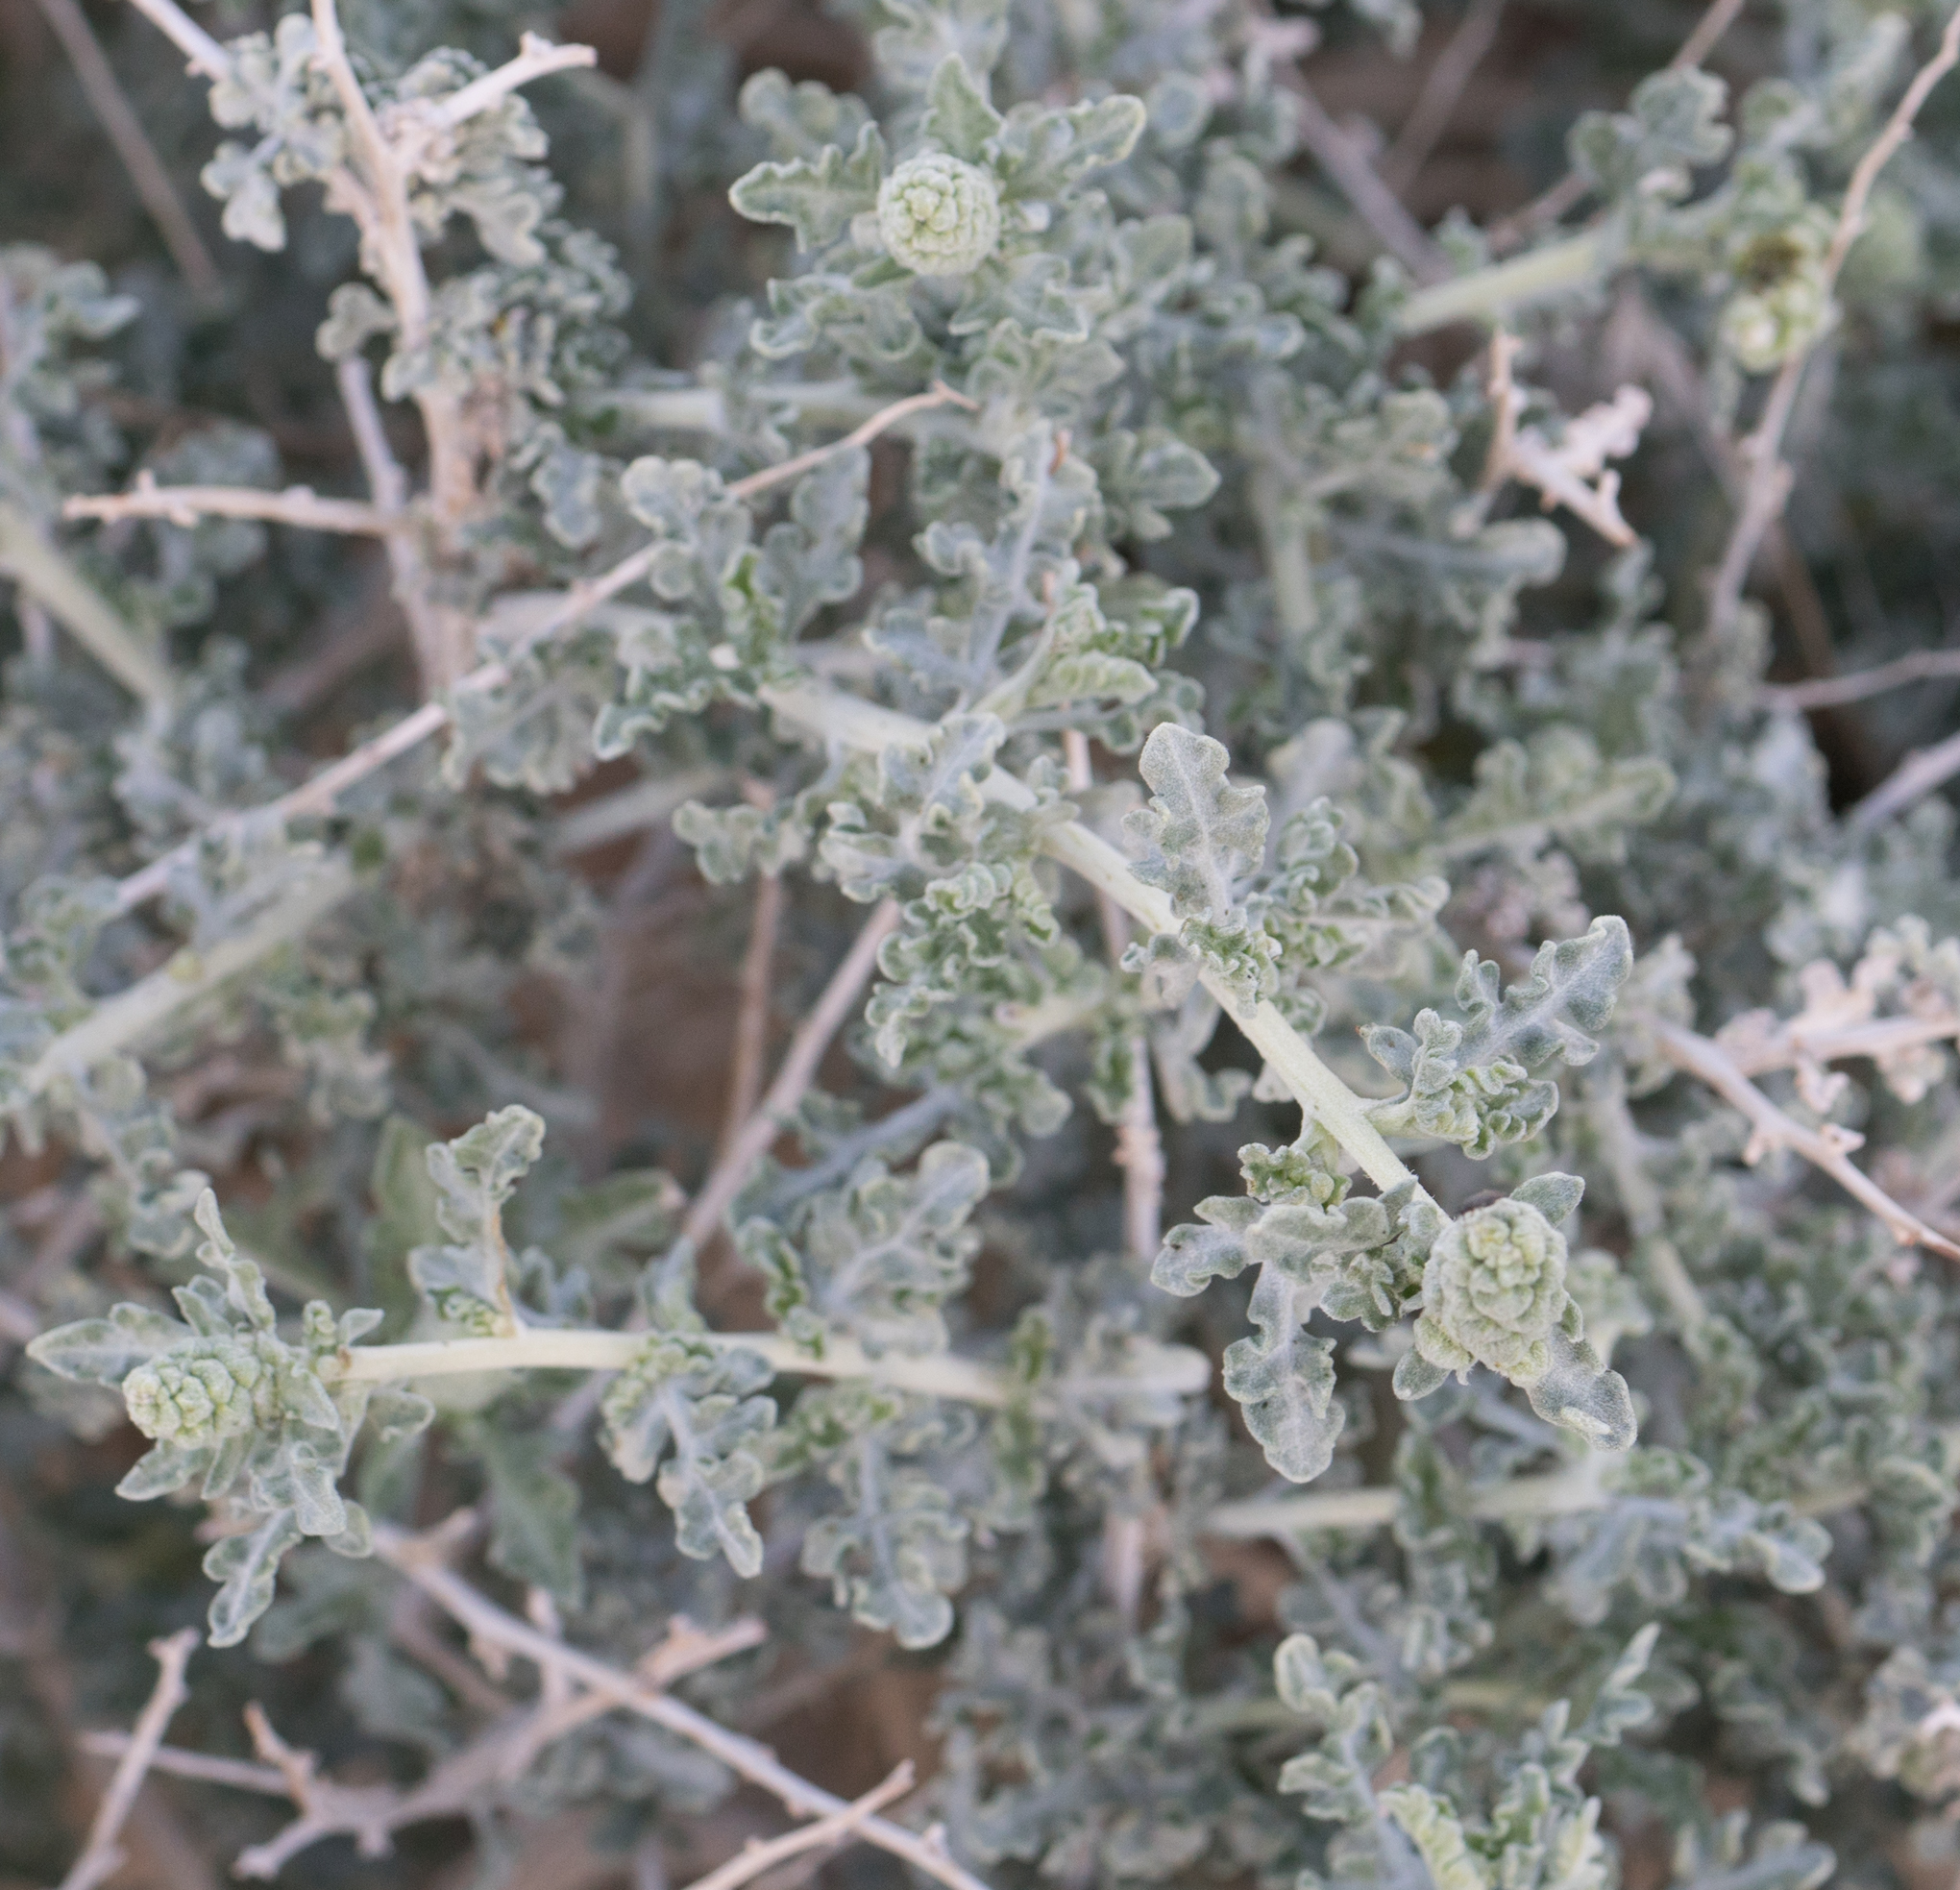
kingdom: Plantae
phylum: Tracheophyta
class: Magnoliopsida
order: Asterales
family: Asteraceae
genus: Ambrosia
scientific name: Ambrosia dumosa
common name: Bur-sage
